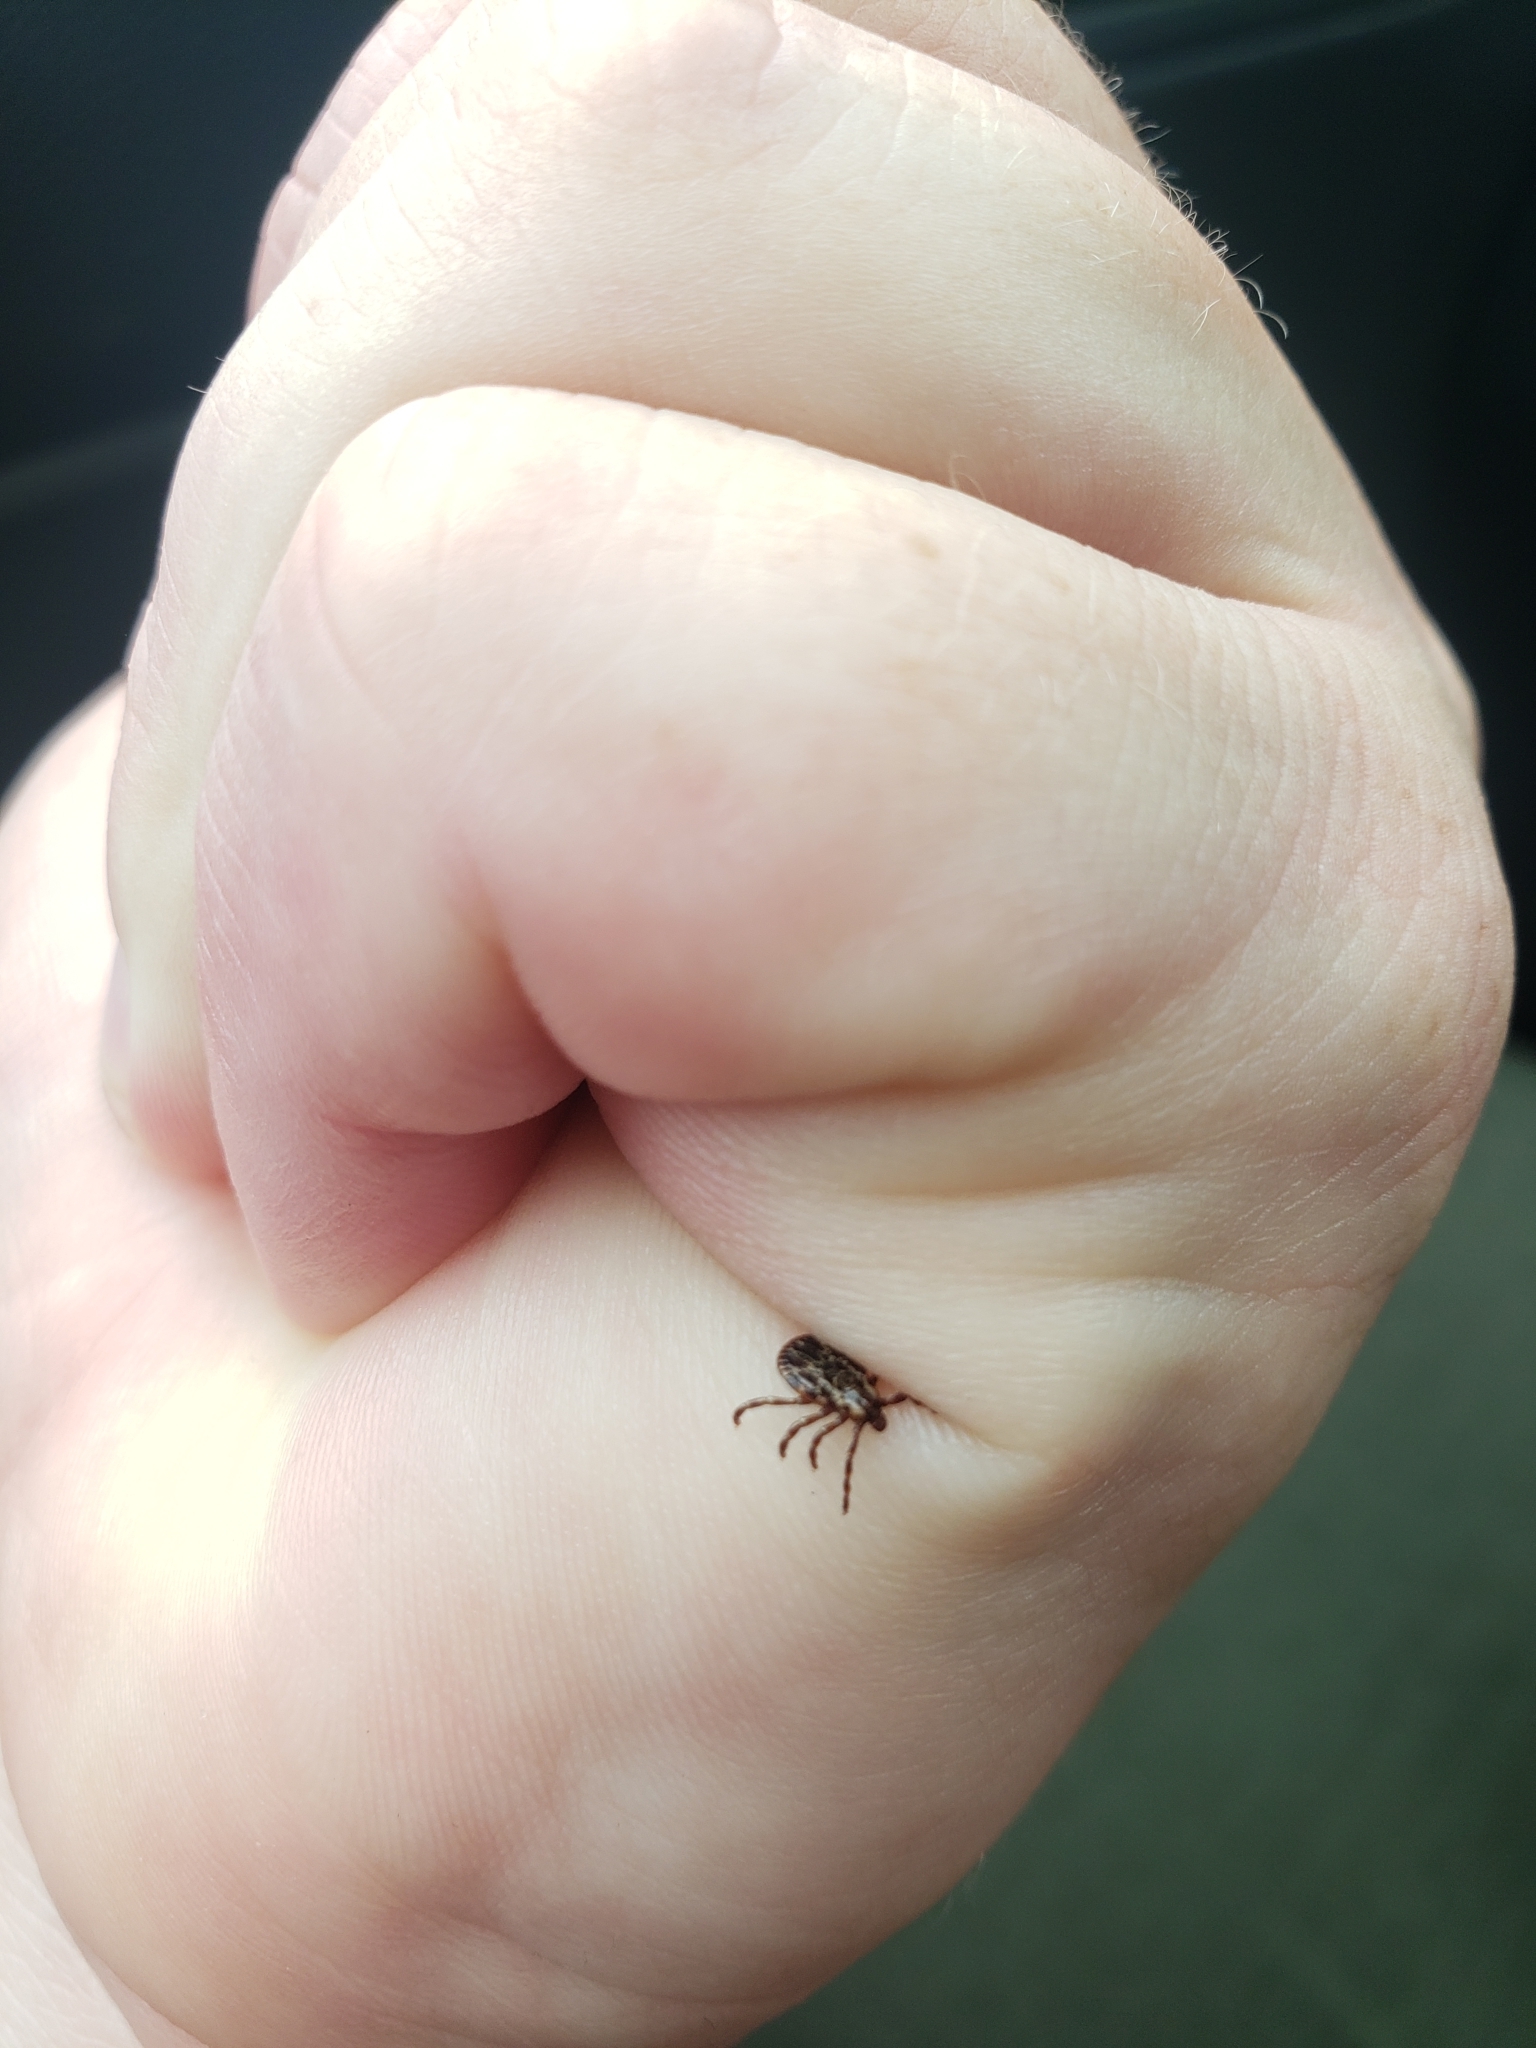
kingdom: Animalia
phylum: Arthropoda
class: Arachnida
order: Ixodida
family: Ixodidae
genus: Dermacentor
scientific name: Dermacentor variabilis
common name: American dog tick
